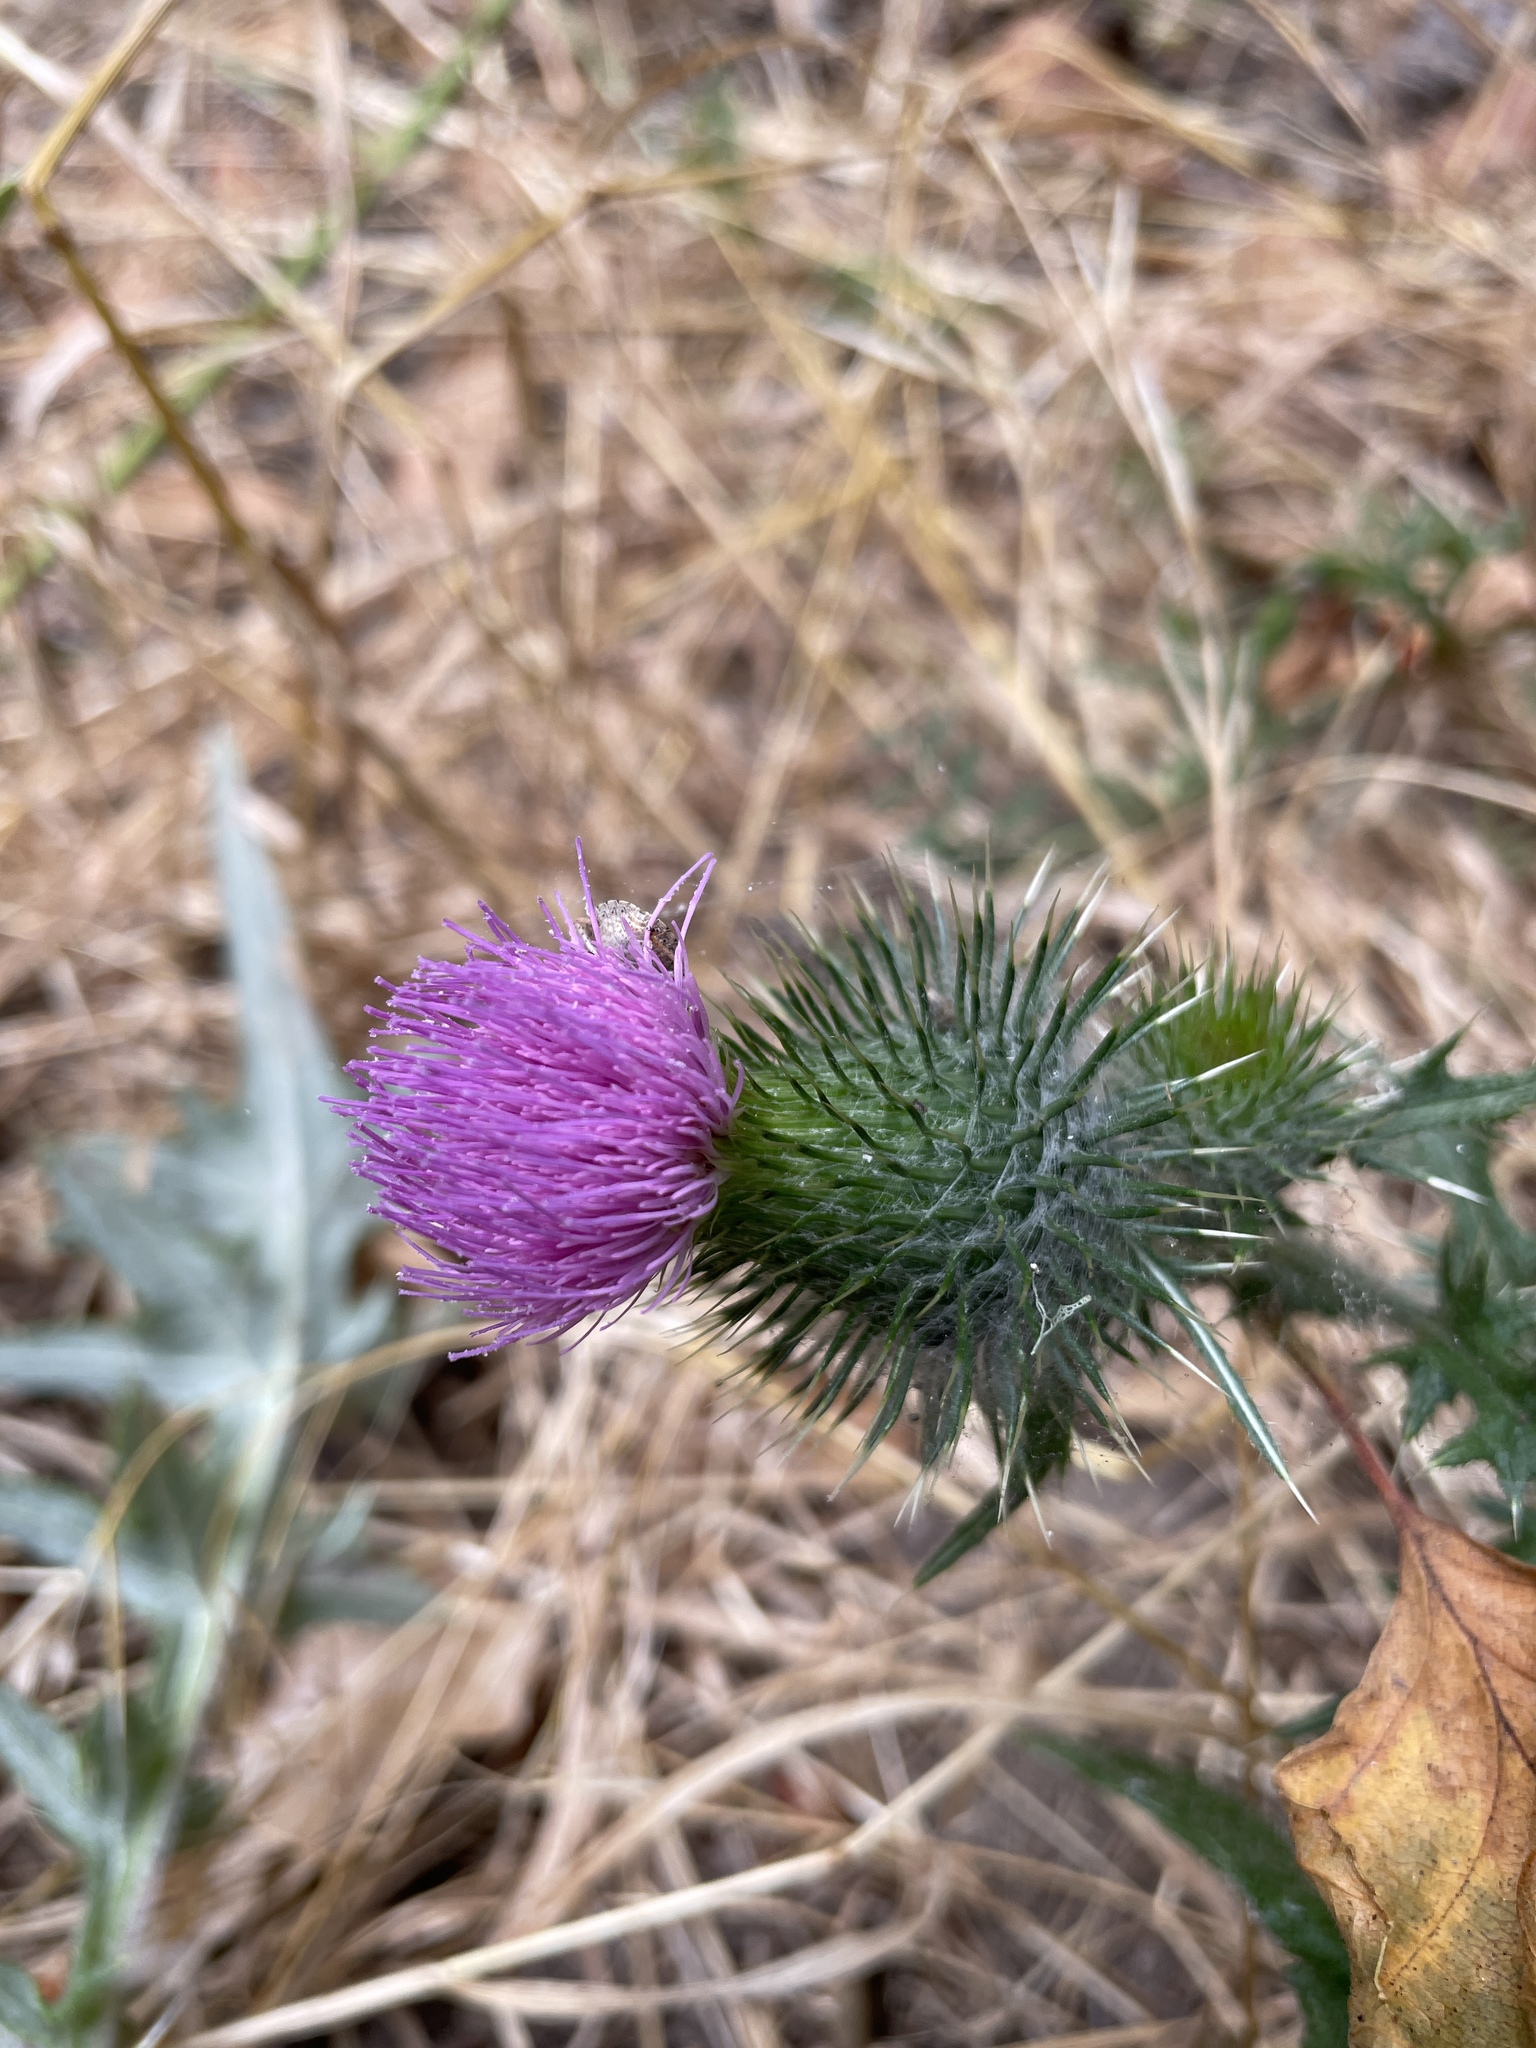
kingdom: Plantae
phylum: Tracheophyta
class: Magnoliopsida
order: Asterales
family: Asteraceae
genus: Cirsium
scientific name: Cirsium vulgare
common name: Bull thistle
